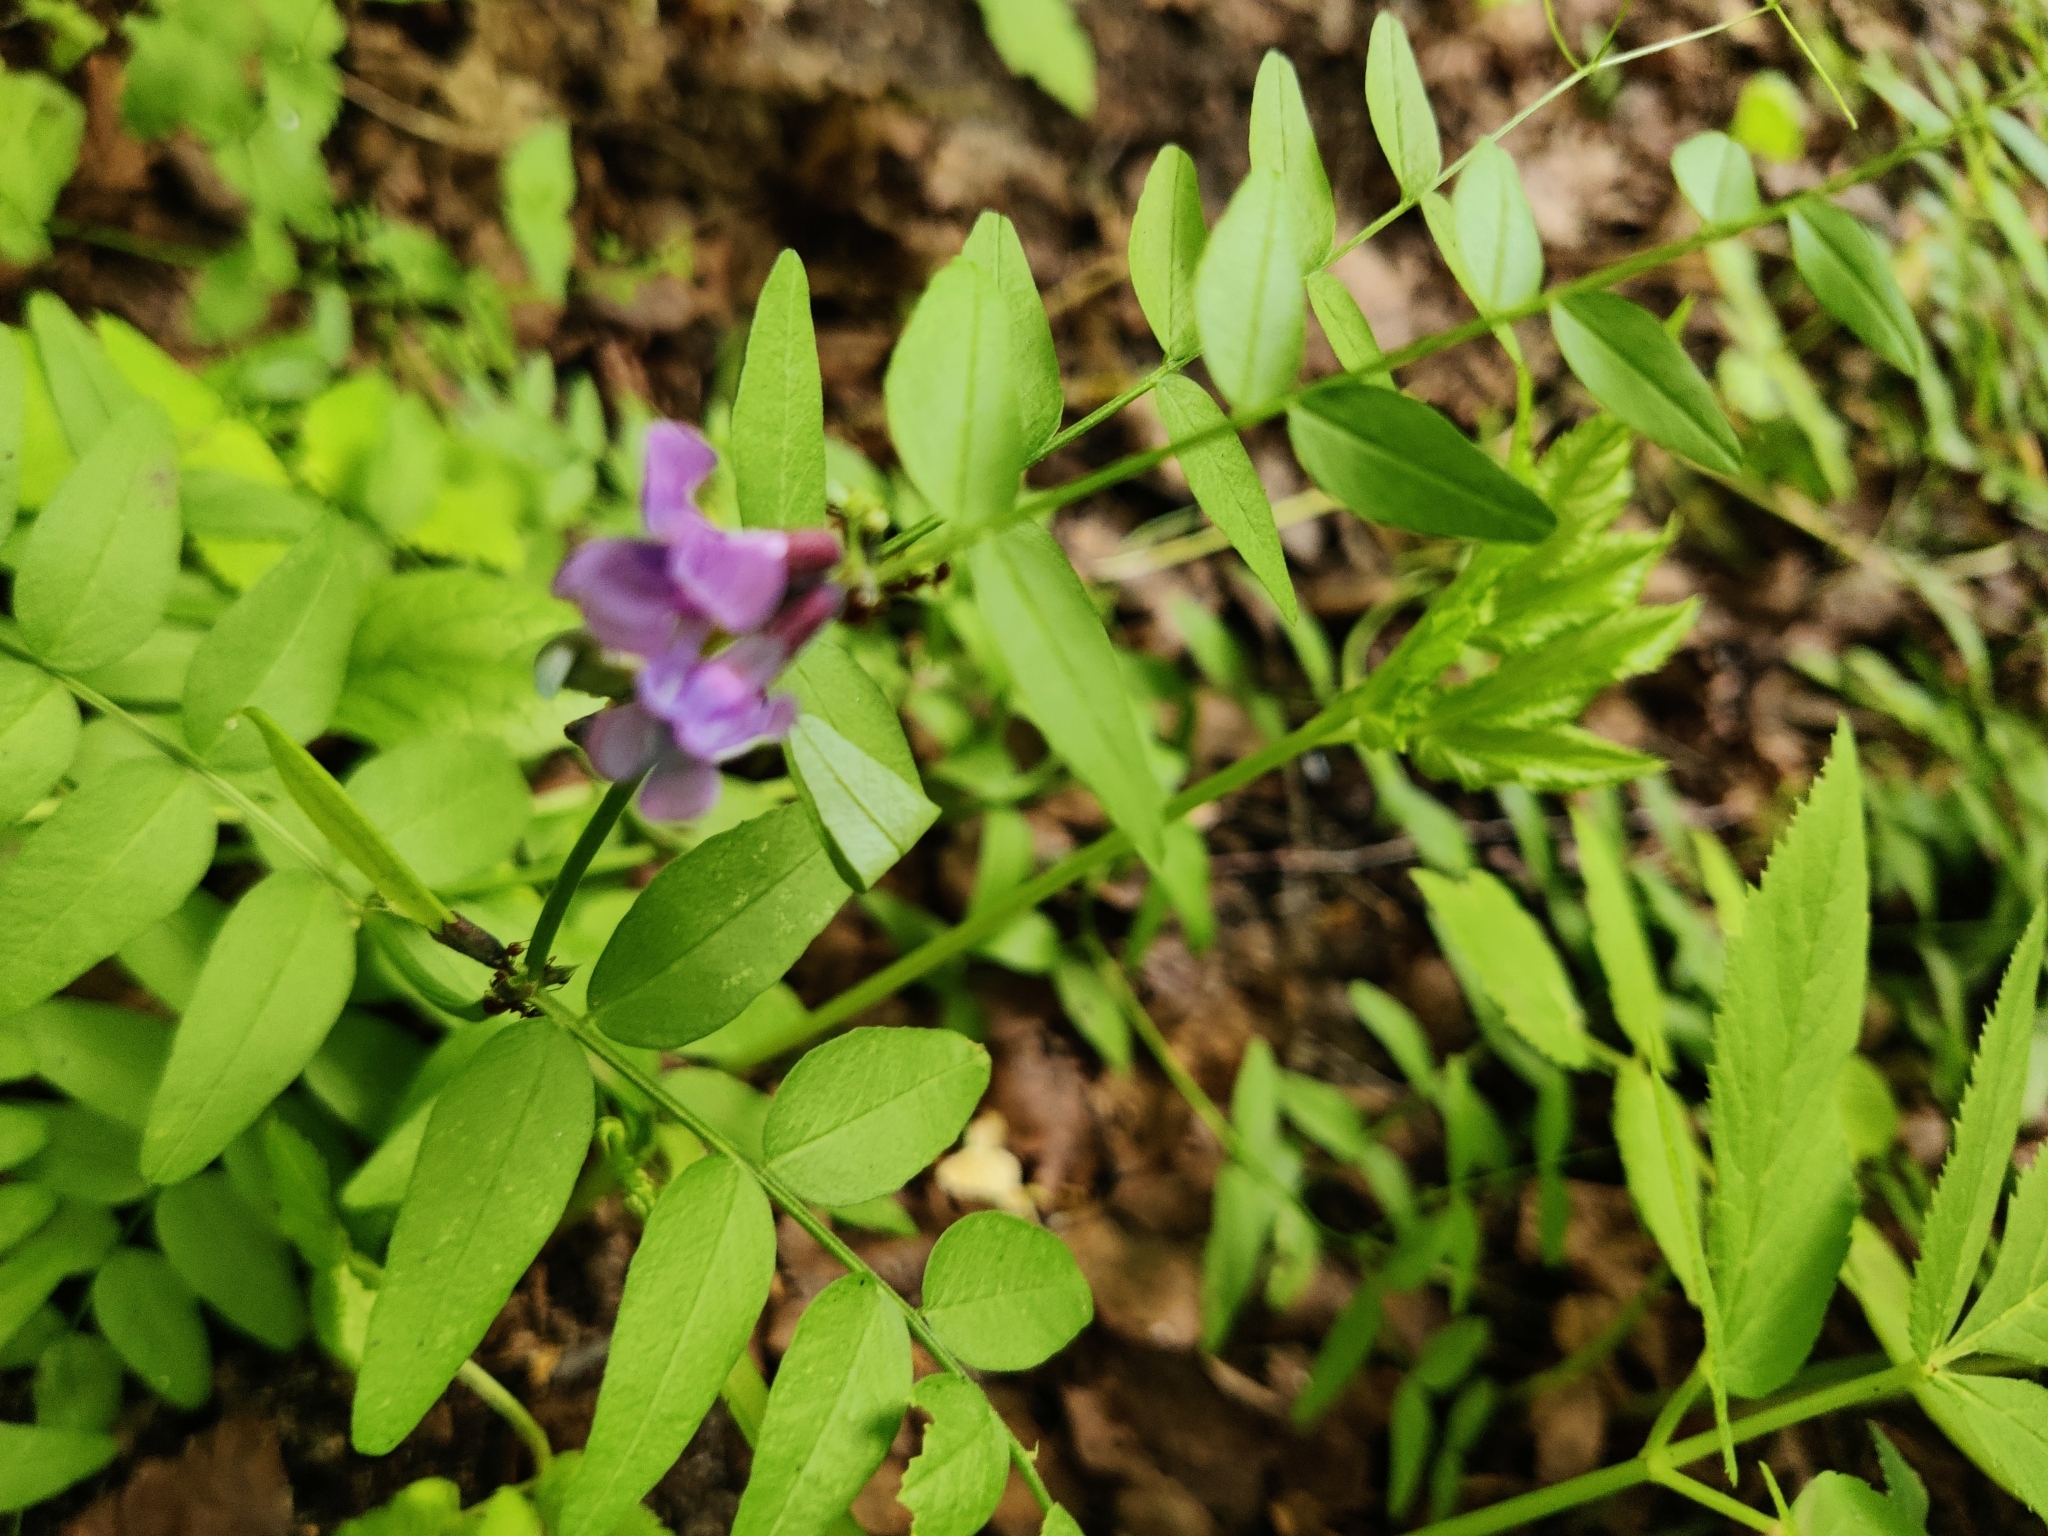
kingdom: Plantae
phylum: Tracheophyta
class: Magnoliopsida
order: Fabales
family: Fabaceae
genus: Vicia
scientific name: Vicia sepium
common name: Bush vetch
